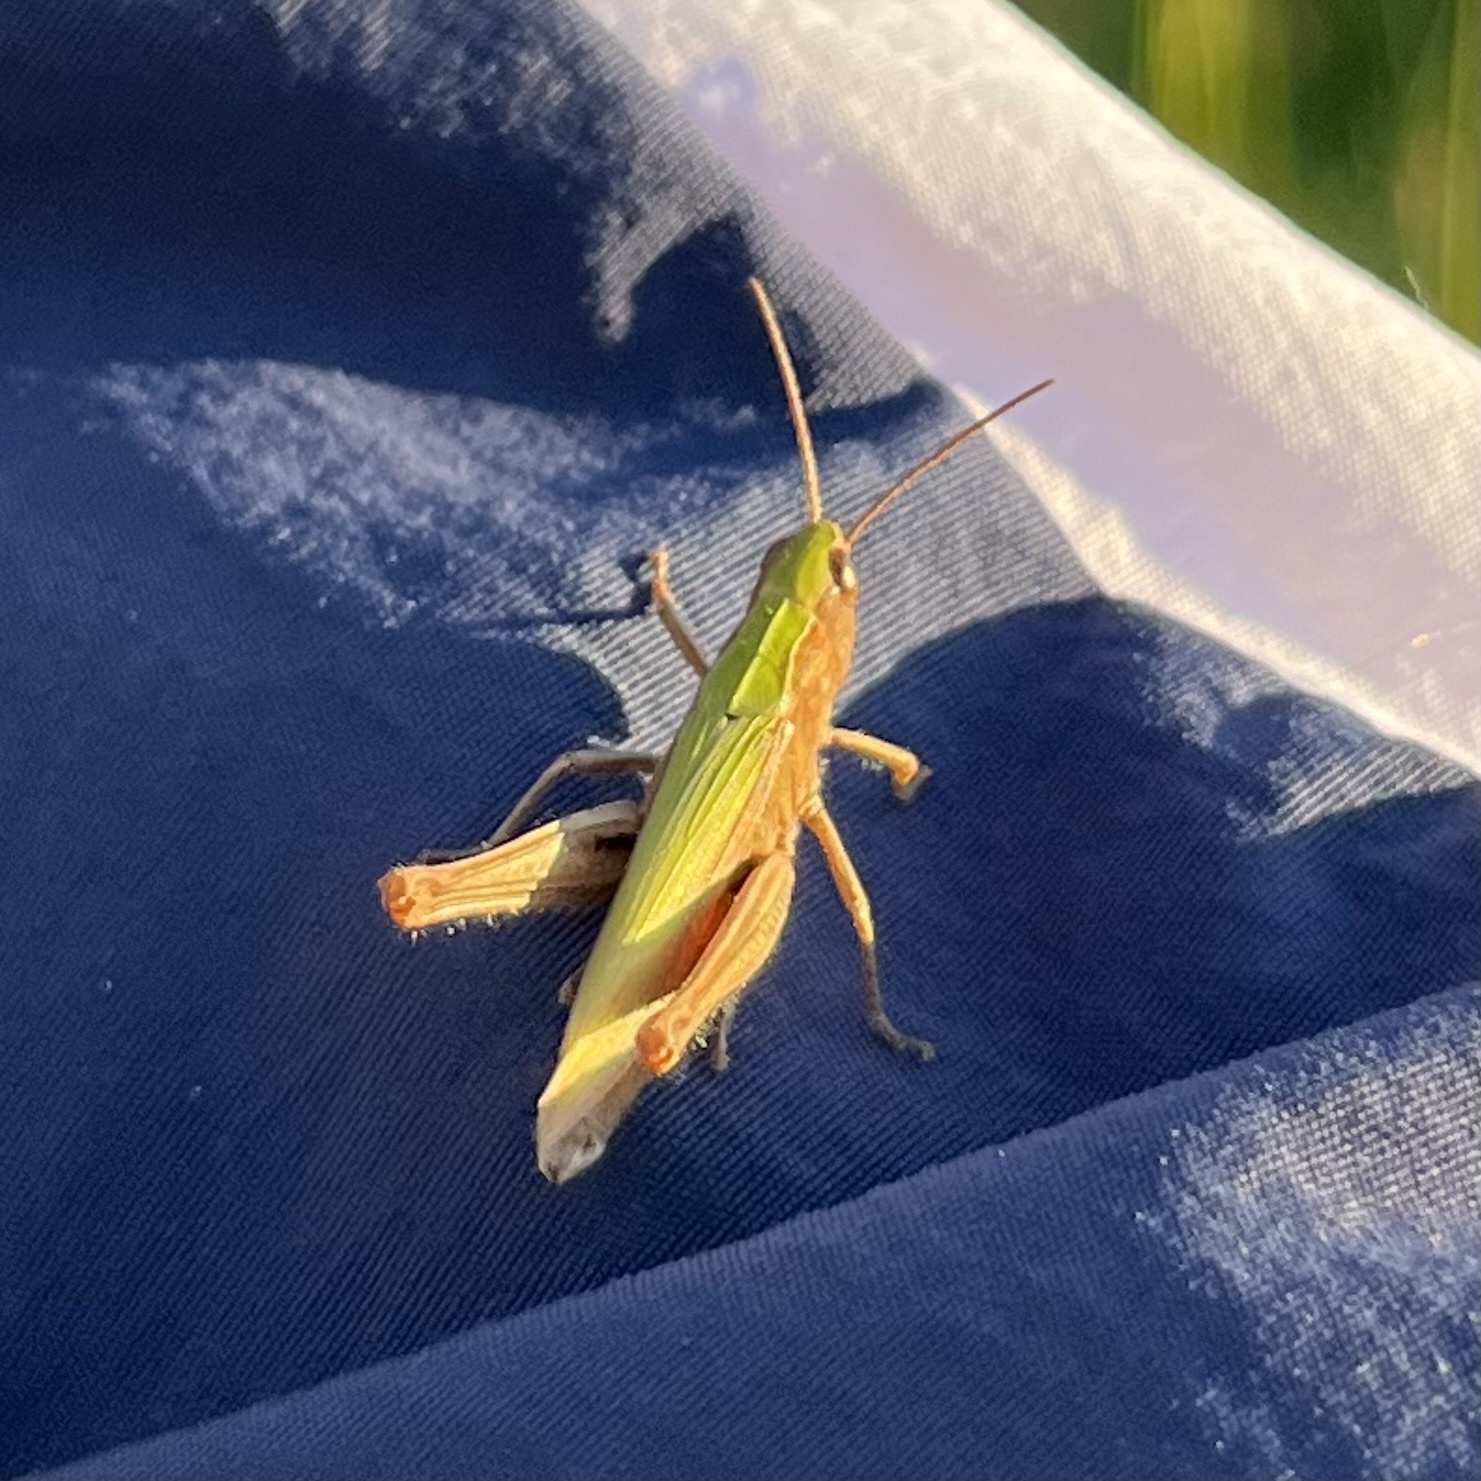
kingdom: Animalia
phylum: Arthropoda
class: Insecta
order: Orthoptera
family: Acrididae
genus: Chorthippus
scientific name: Chorthippus dorsatus
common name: Steppe grasshopper
